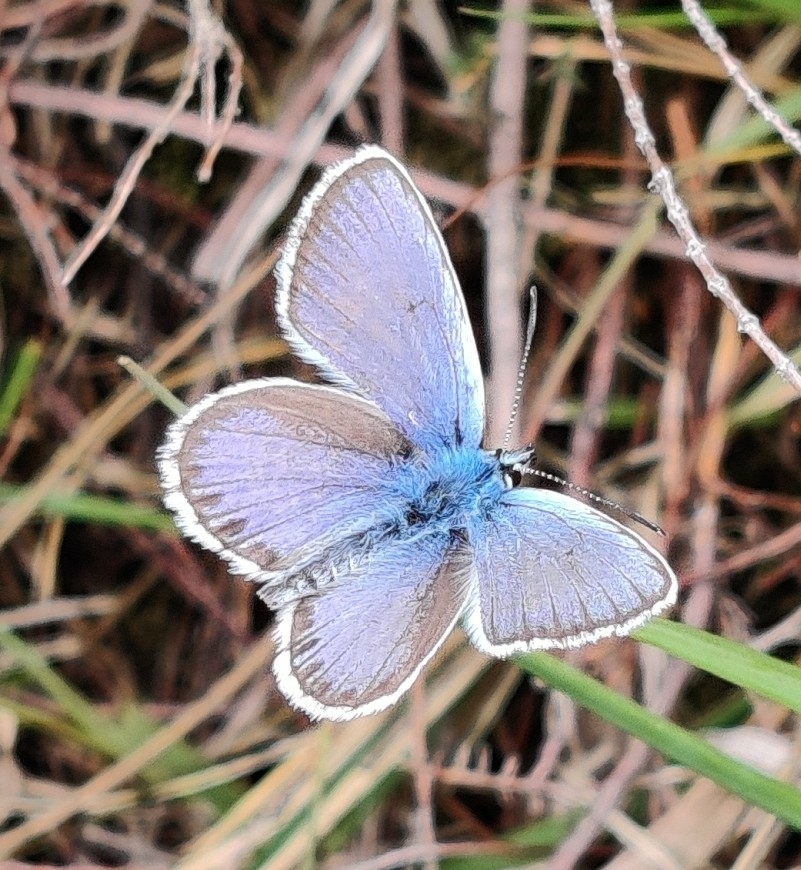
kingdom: Animalia
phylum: Arthropoda
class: Insecta
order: Lepidoptera
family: Lycaenidae
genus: Plebejus
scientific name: Plebejus argus
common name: Silver-studded blue
